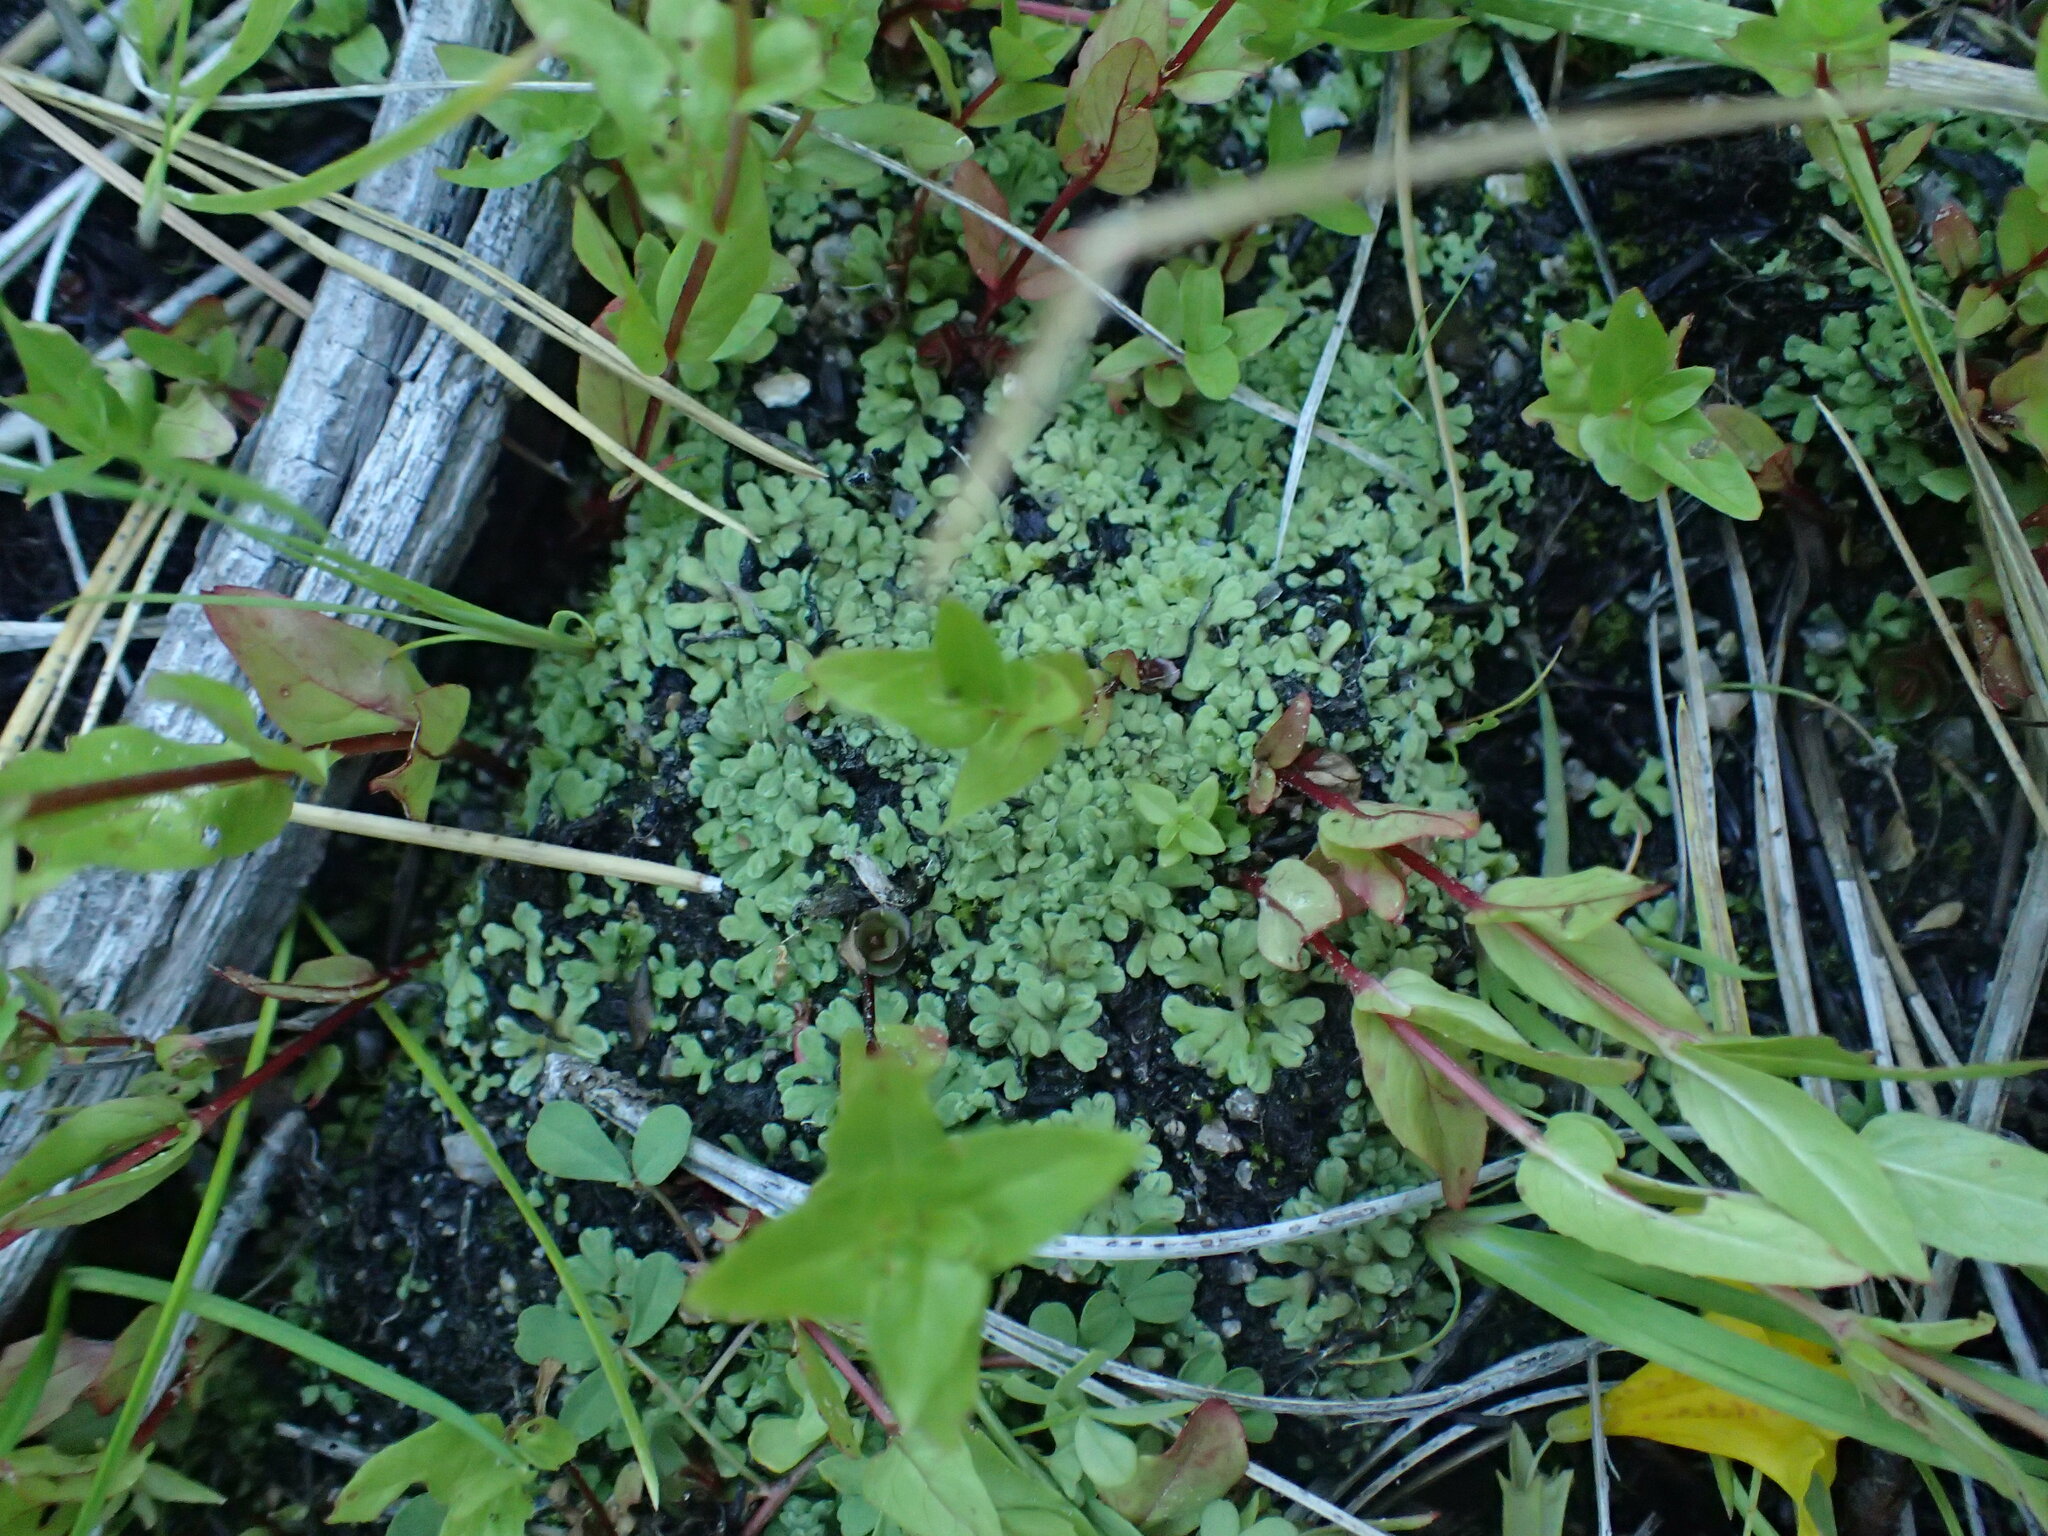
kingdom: Plantae
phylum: Marchantiophyta
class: Marchantiopsida
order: Marchantiales
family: Ricciaceae
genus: Riccia
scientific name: Riccia californica
